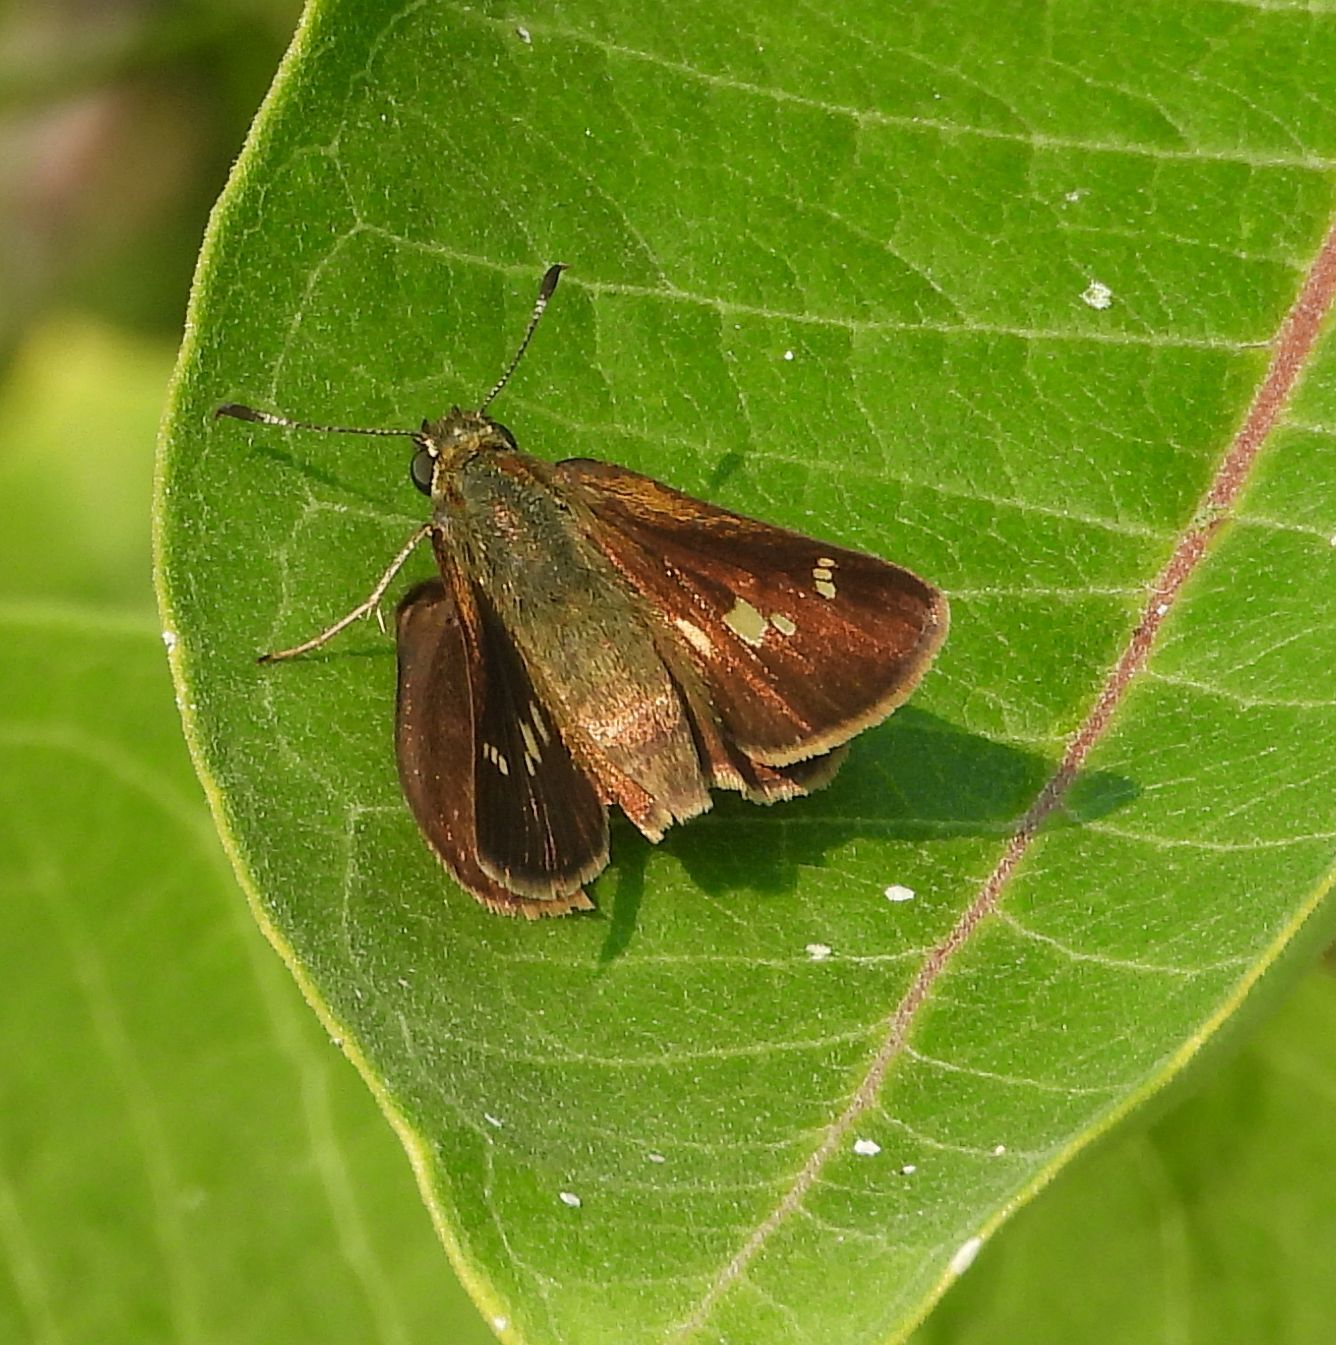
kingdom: Animalia
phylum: Arthropoda
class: Insecta
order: Lepidoptera
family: Hesperiidae
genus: Vernia
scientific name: Vernia verna
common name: Little glassywing
